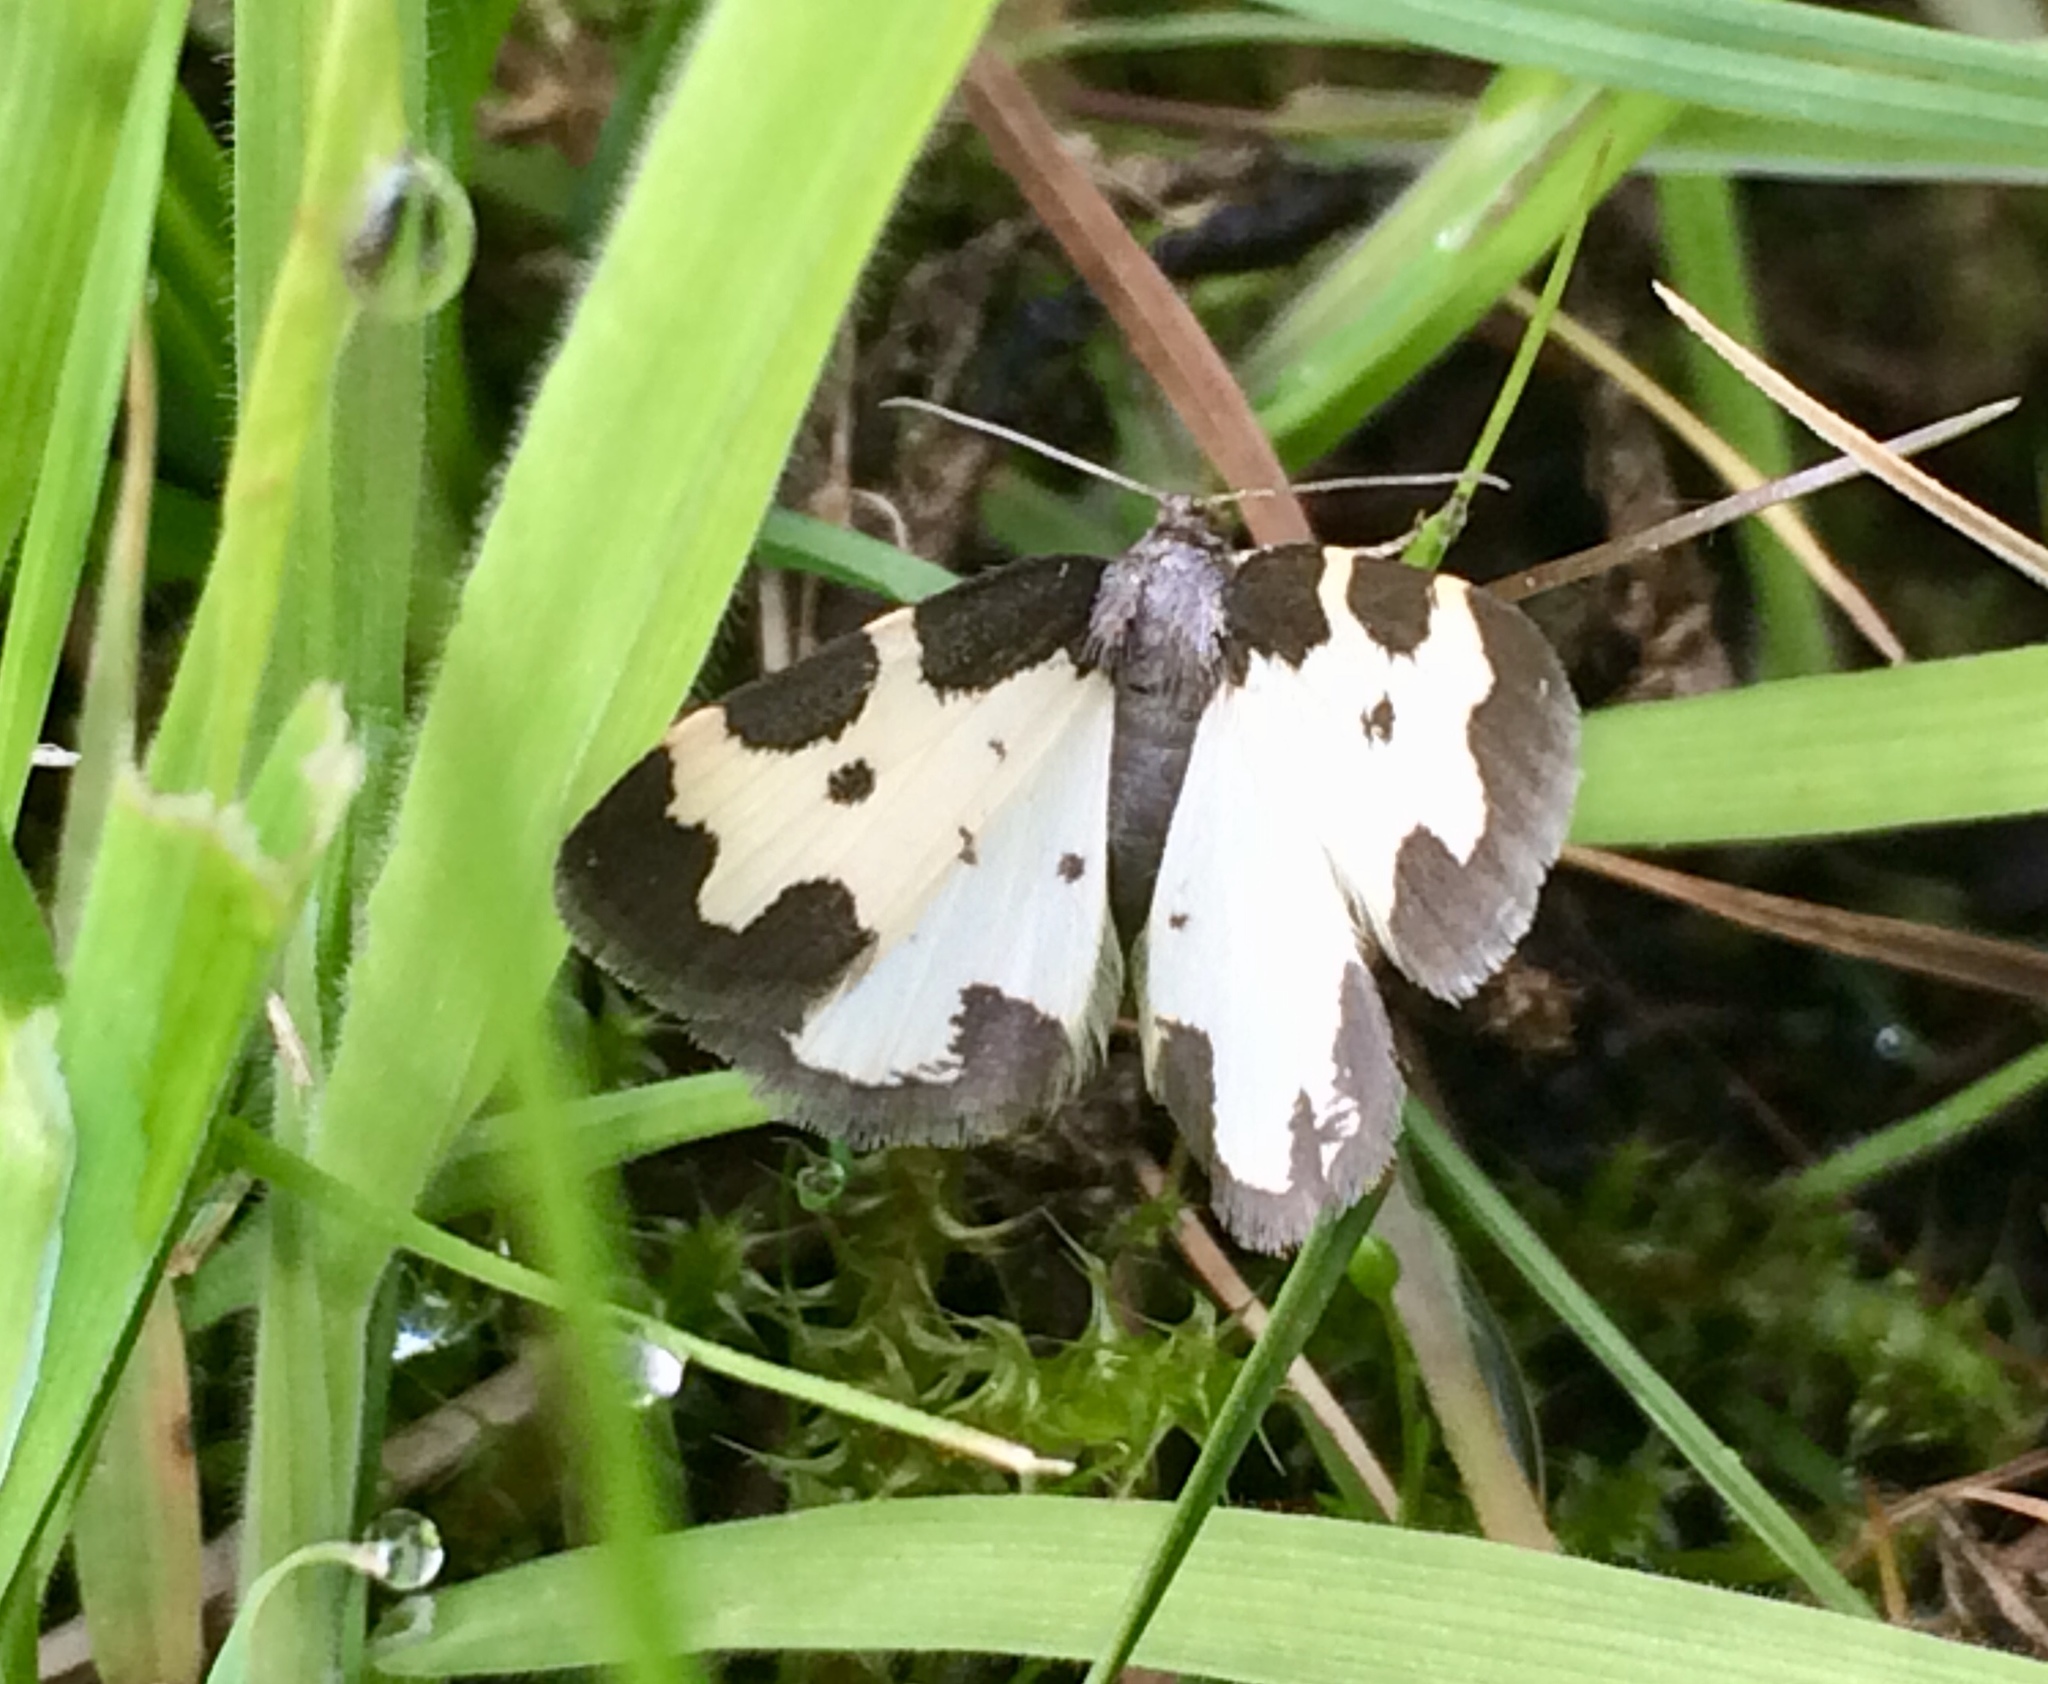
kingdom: Animalia
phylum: Arthropoda
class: Insecta
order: Lepidoptera
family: Geometridae
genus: Lomaspilis
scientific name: Lomaspilis marginata
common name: Clouded border
